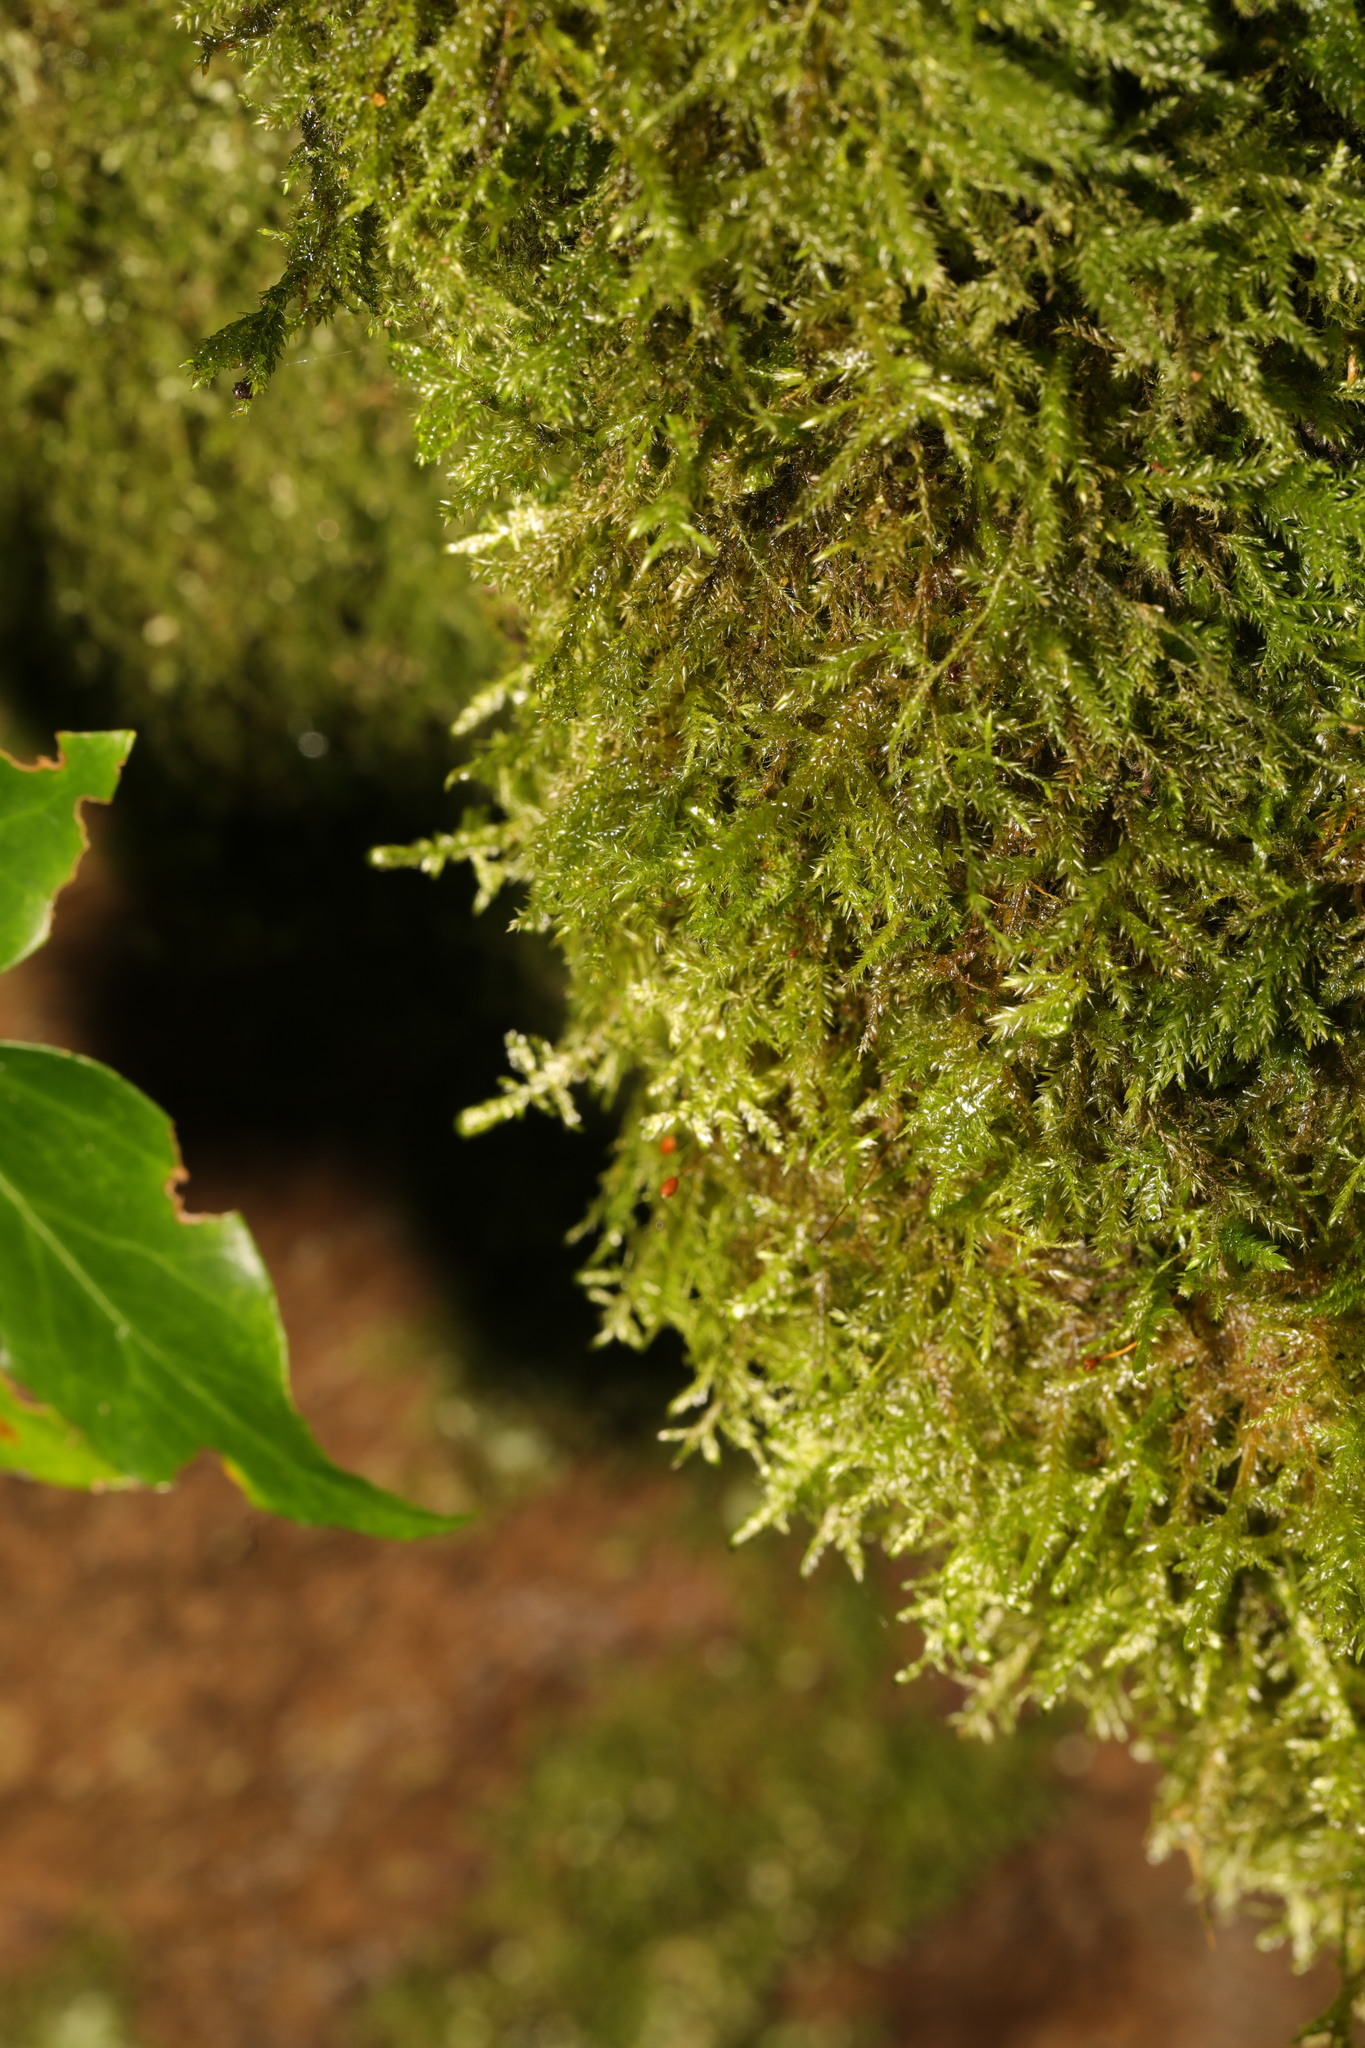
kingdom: Plantae
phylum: Bryophyta
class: Bryopsida
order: Hypnales
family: Neckeraceae
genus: Alleniella
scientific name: Alleniella complanata
